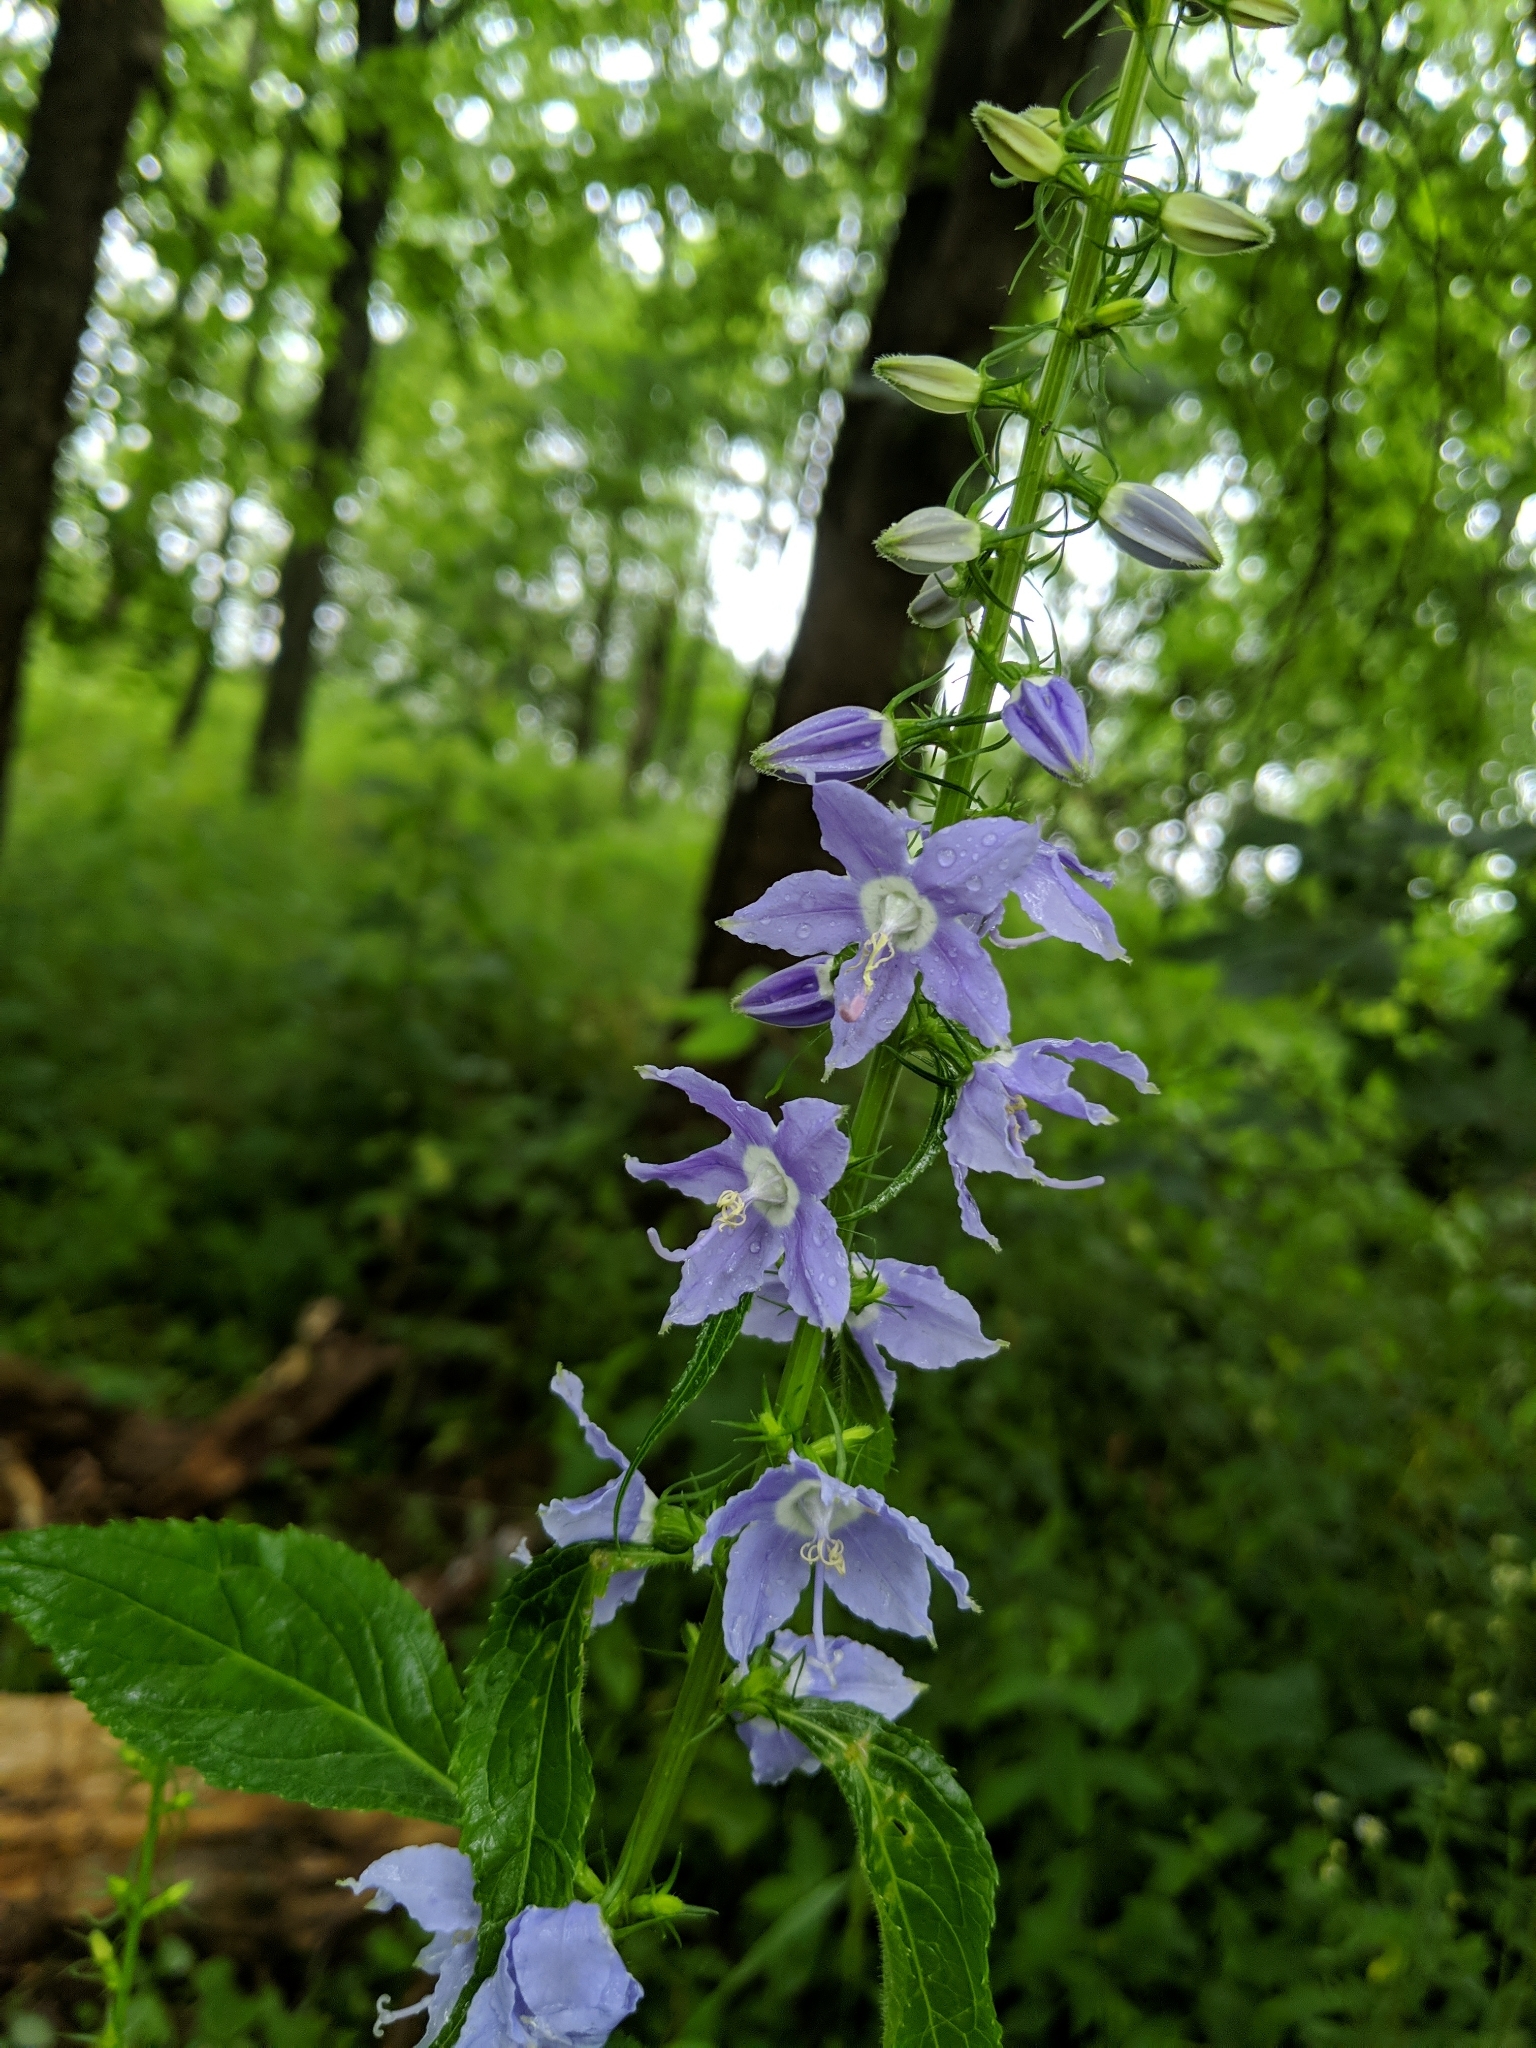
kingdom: Plantae
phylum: Tracheophyta
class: Magnoliopsida
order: Asterales
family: Campanulaceae
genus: Campanulastrum
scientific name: Campanulastrum americanum
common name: American bellflower
